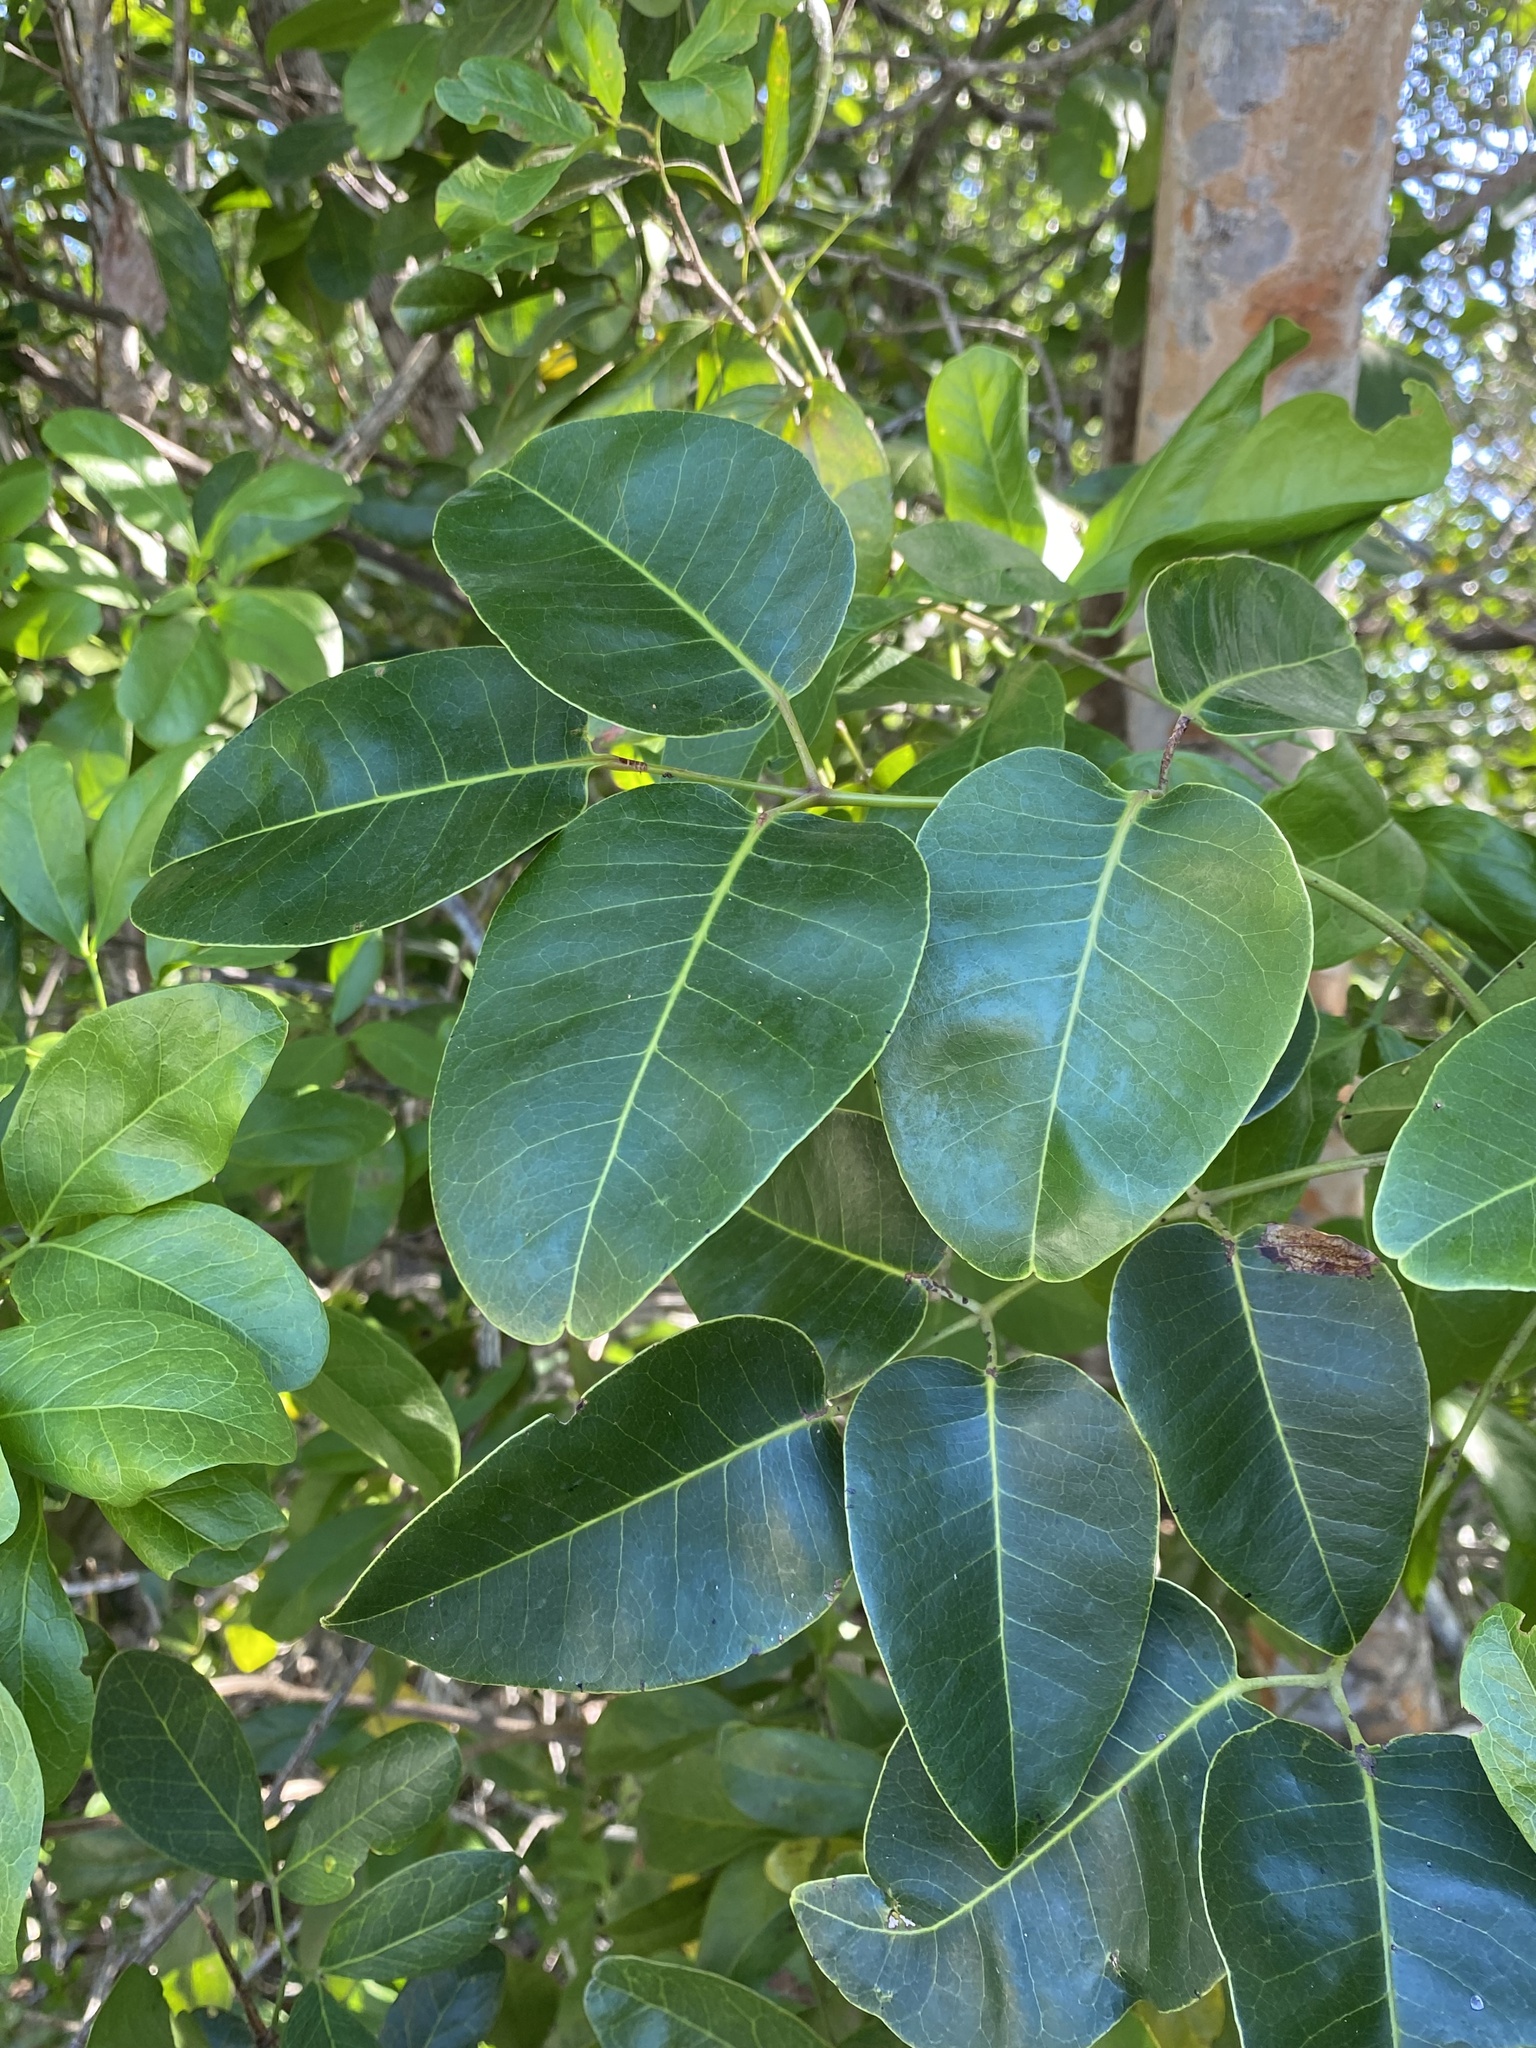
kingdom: Plantae
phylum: Tracheophyta
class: Magnoliopsida
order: Sapindales
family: Anacardiaceae
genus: Metopium
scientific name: Metopium toxiferum
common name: Florida poisontree
